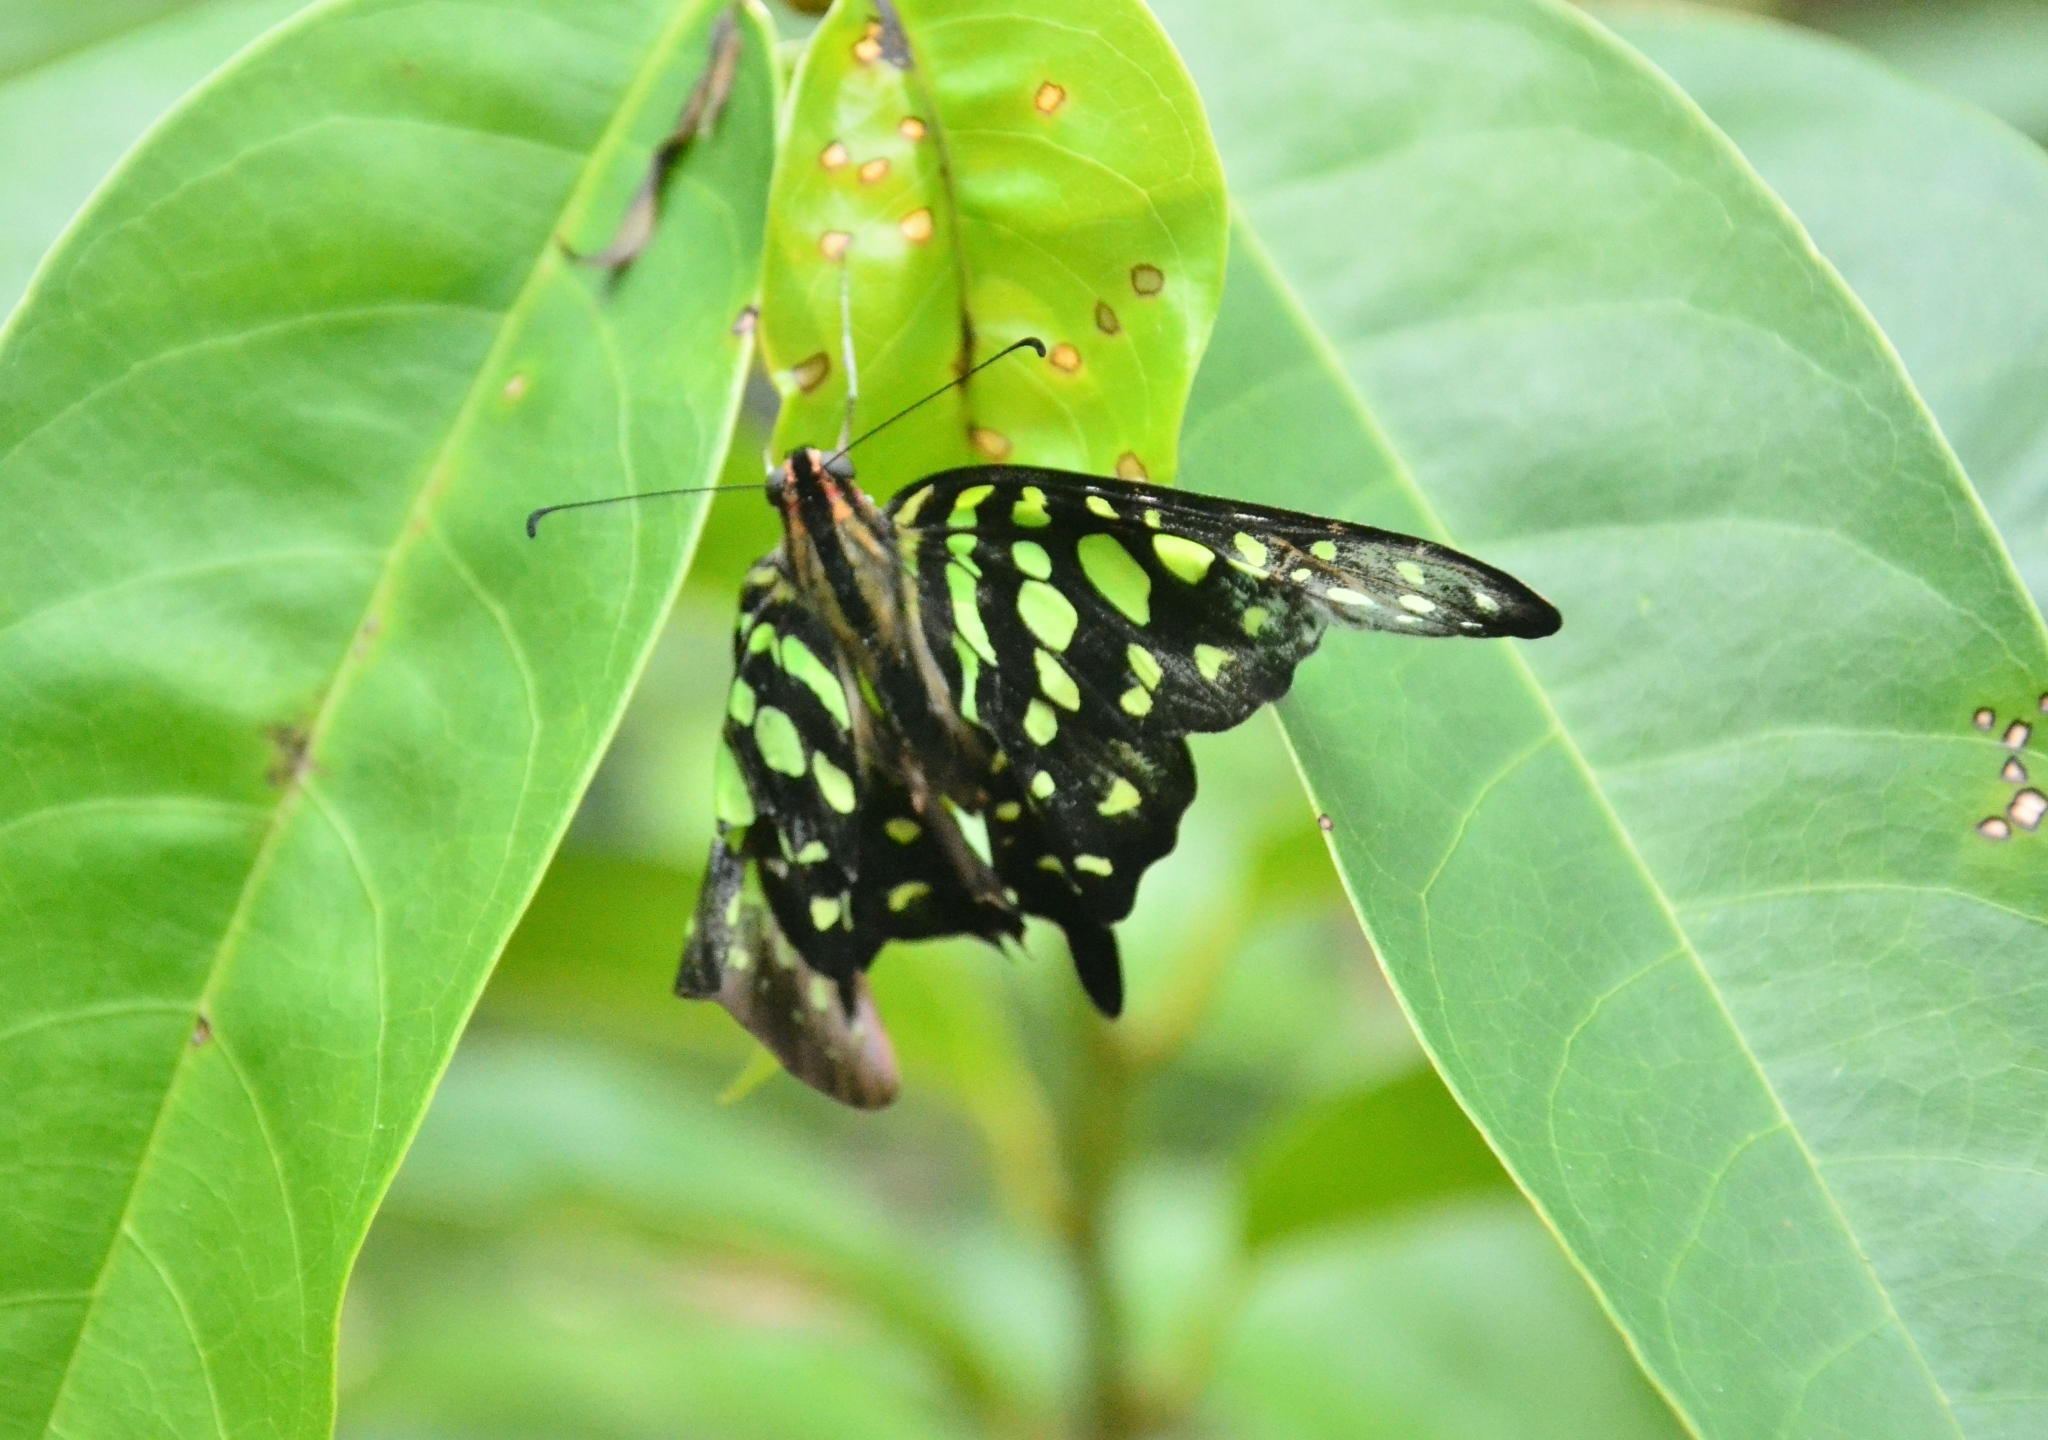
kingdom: Animalia
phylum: Arthropoda
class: Insecta
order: Lepidoptera
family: Papilionidae
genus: Graphium
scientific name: Graphium agamemnon
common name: Tailed jay
